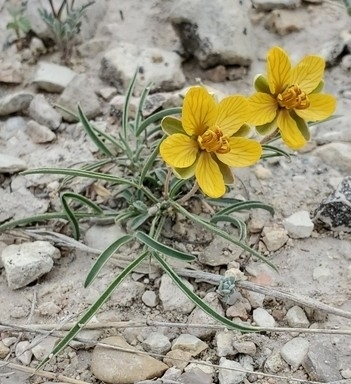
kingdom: Plantae
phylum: Tracheophyta
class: Magnoliopsida
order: Fabales
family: Fabaceae
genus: Senna
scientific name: Senna pumilio
